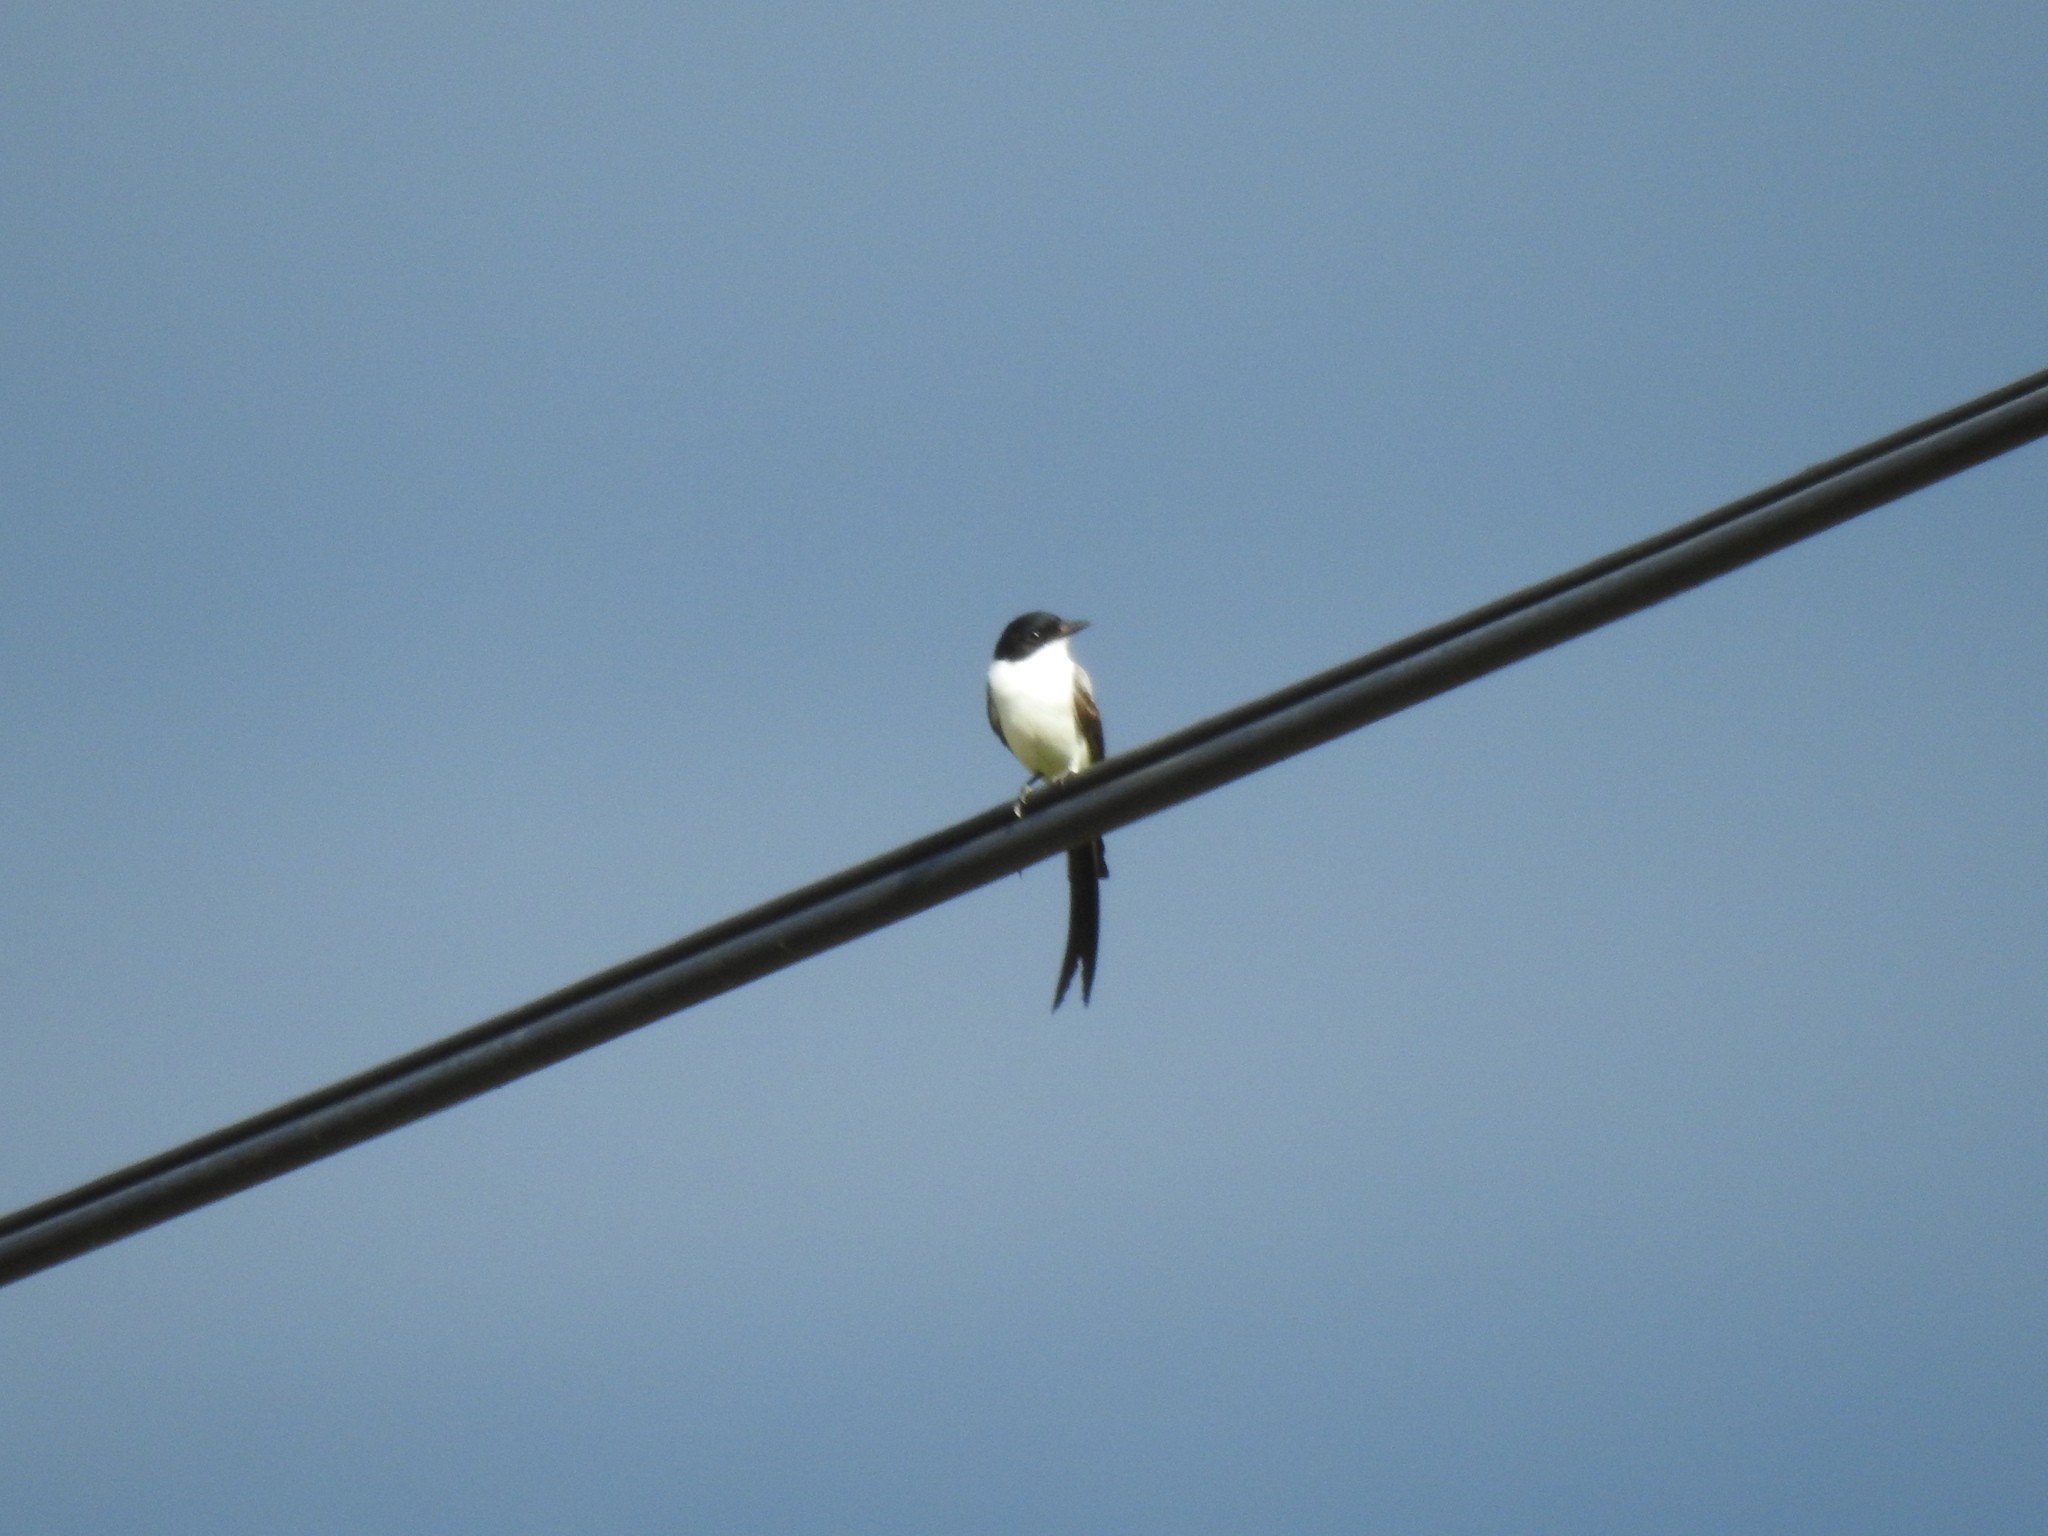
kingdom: Animalia
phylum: Chordata
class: Aves
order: Passeriformes
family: Tyrannidae
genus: Tyrannus
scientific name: Tyrannus savana
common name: Fork-tailed flycatcher
